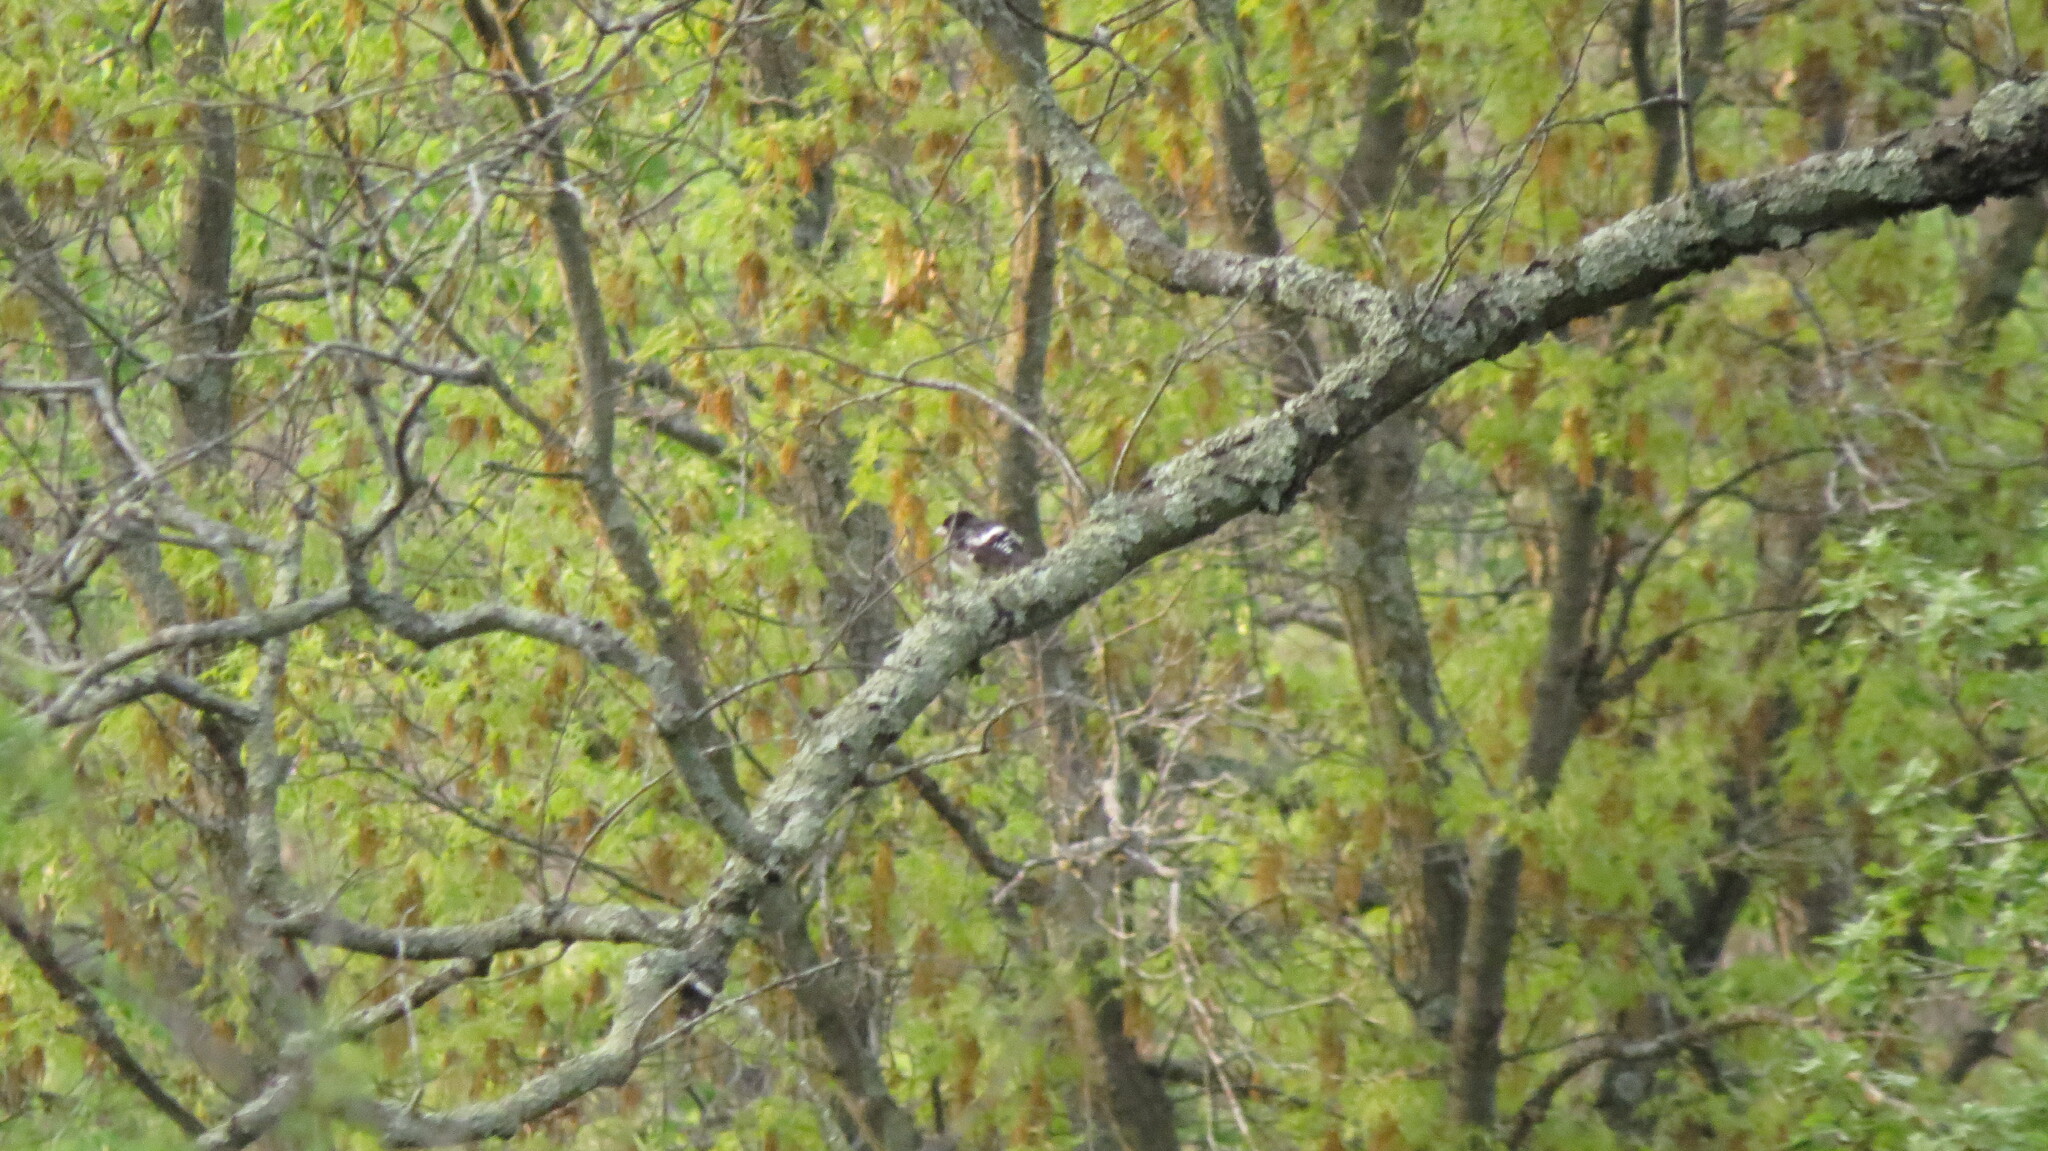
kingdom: Animalia
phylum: Chordata
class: Aves
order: Passeriformes
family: Cardinalidae
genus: Pheucticus
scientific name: Pheucticus ludovicianus
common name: Rose-breasted grosbeak
